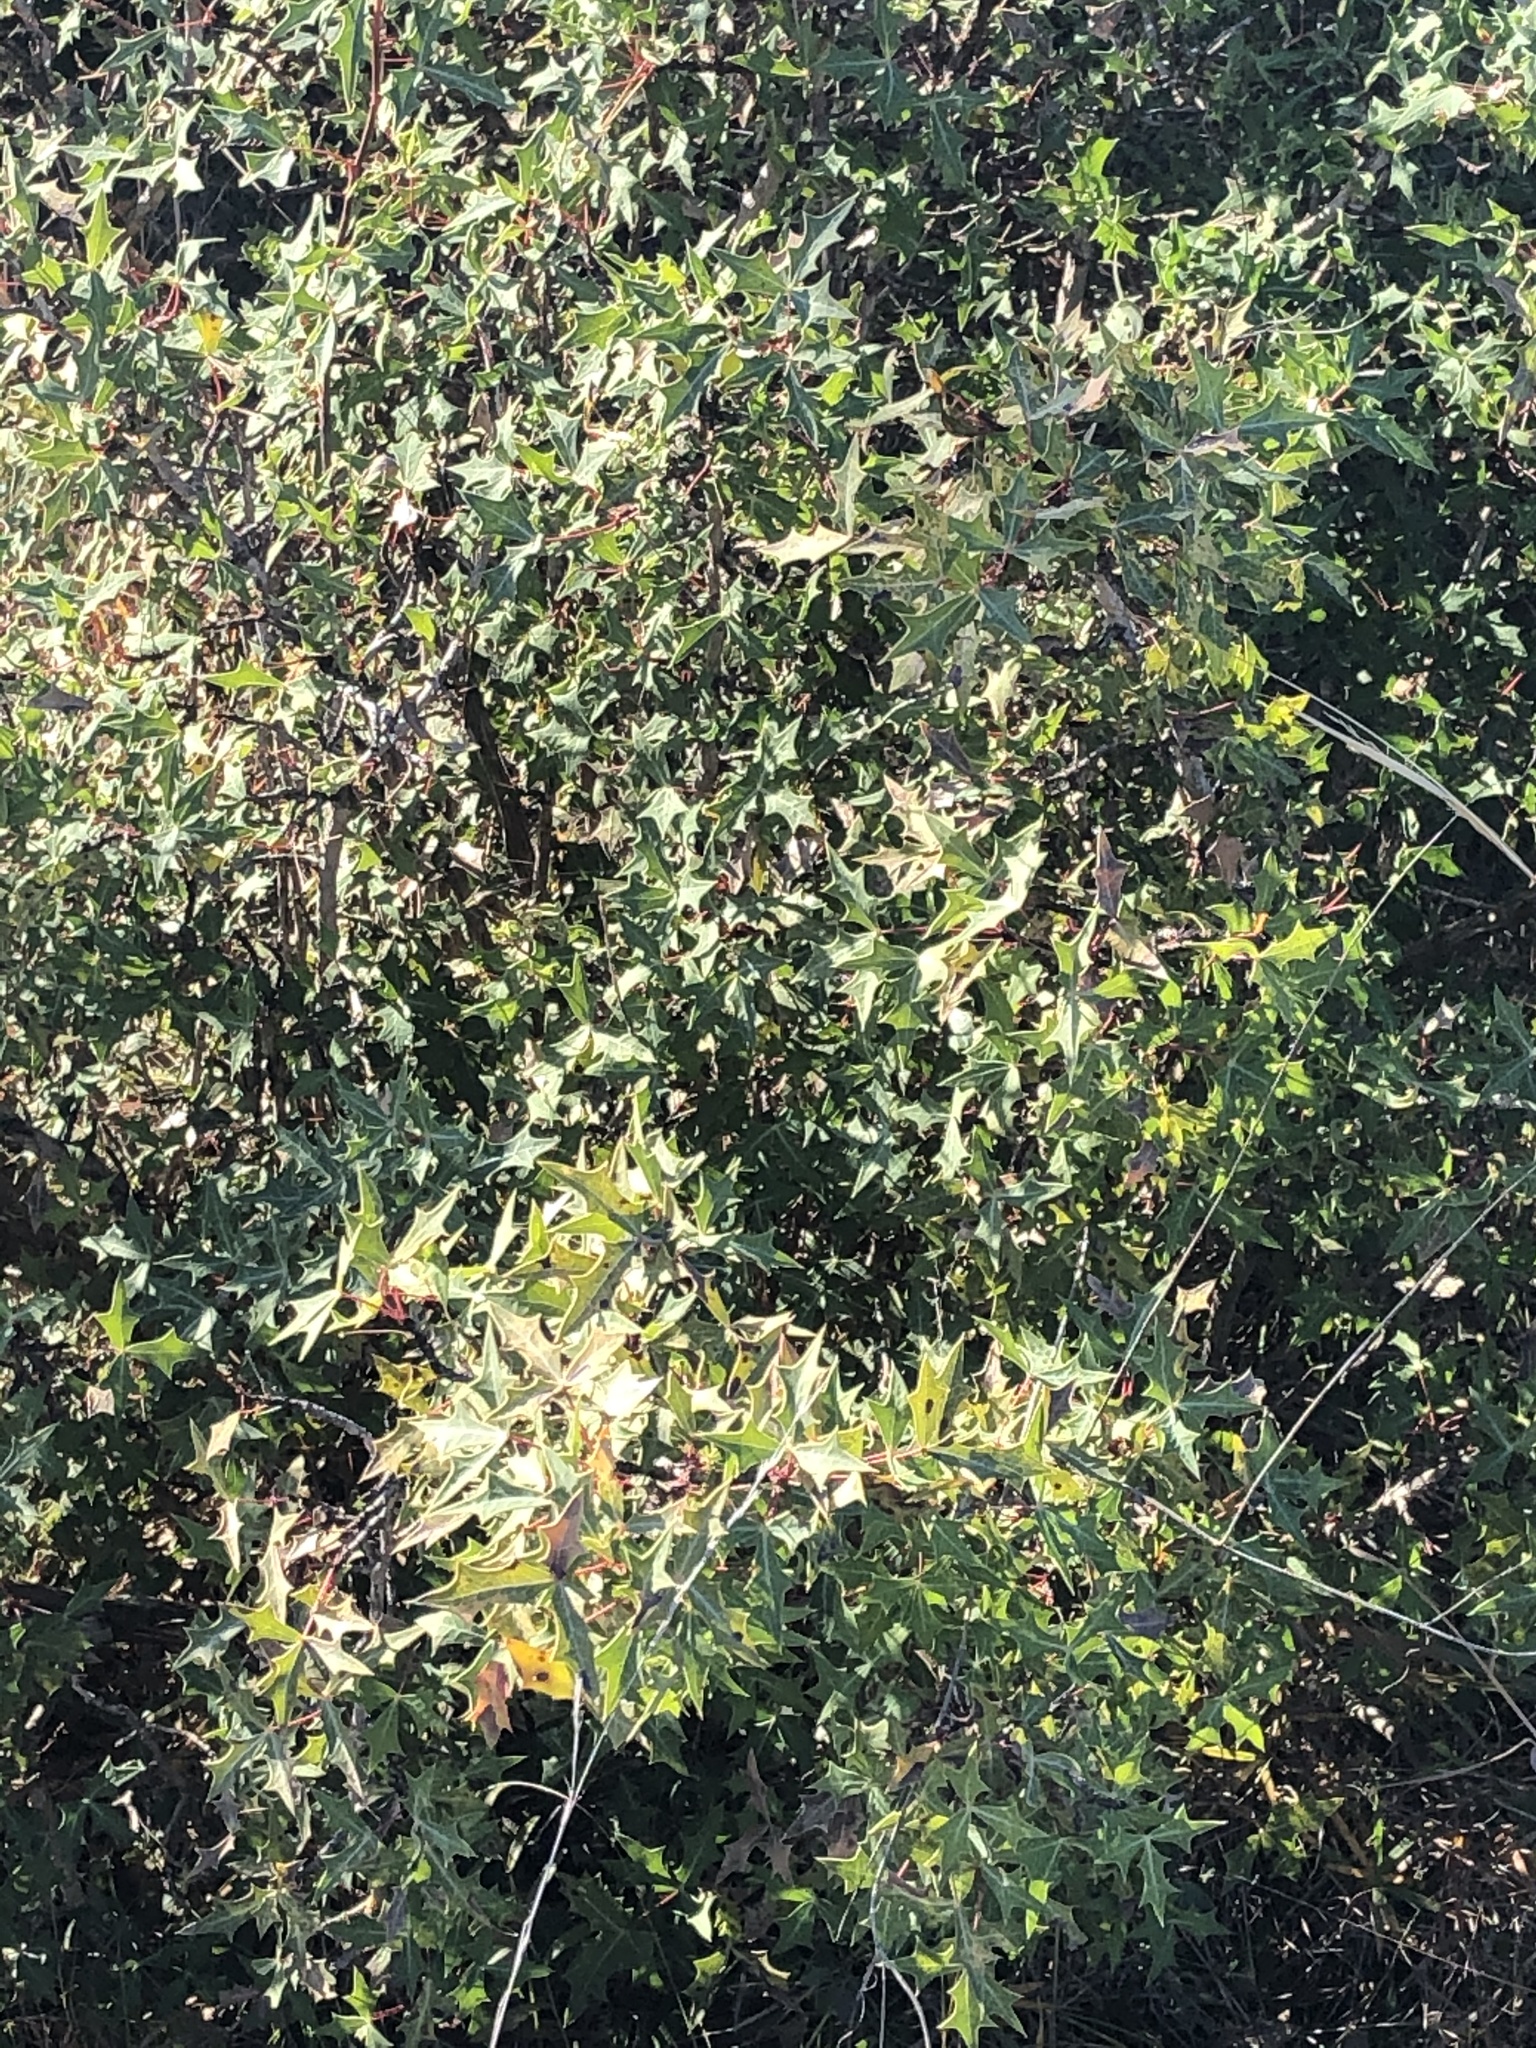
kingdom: Plantae
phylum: Tracheophyta
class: Magnoliopsida
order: Ranunculales
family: Berberidaceae
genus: Alloberberis
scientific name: Alloberberis trifoliolata
